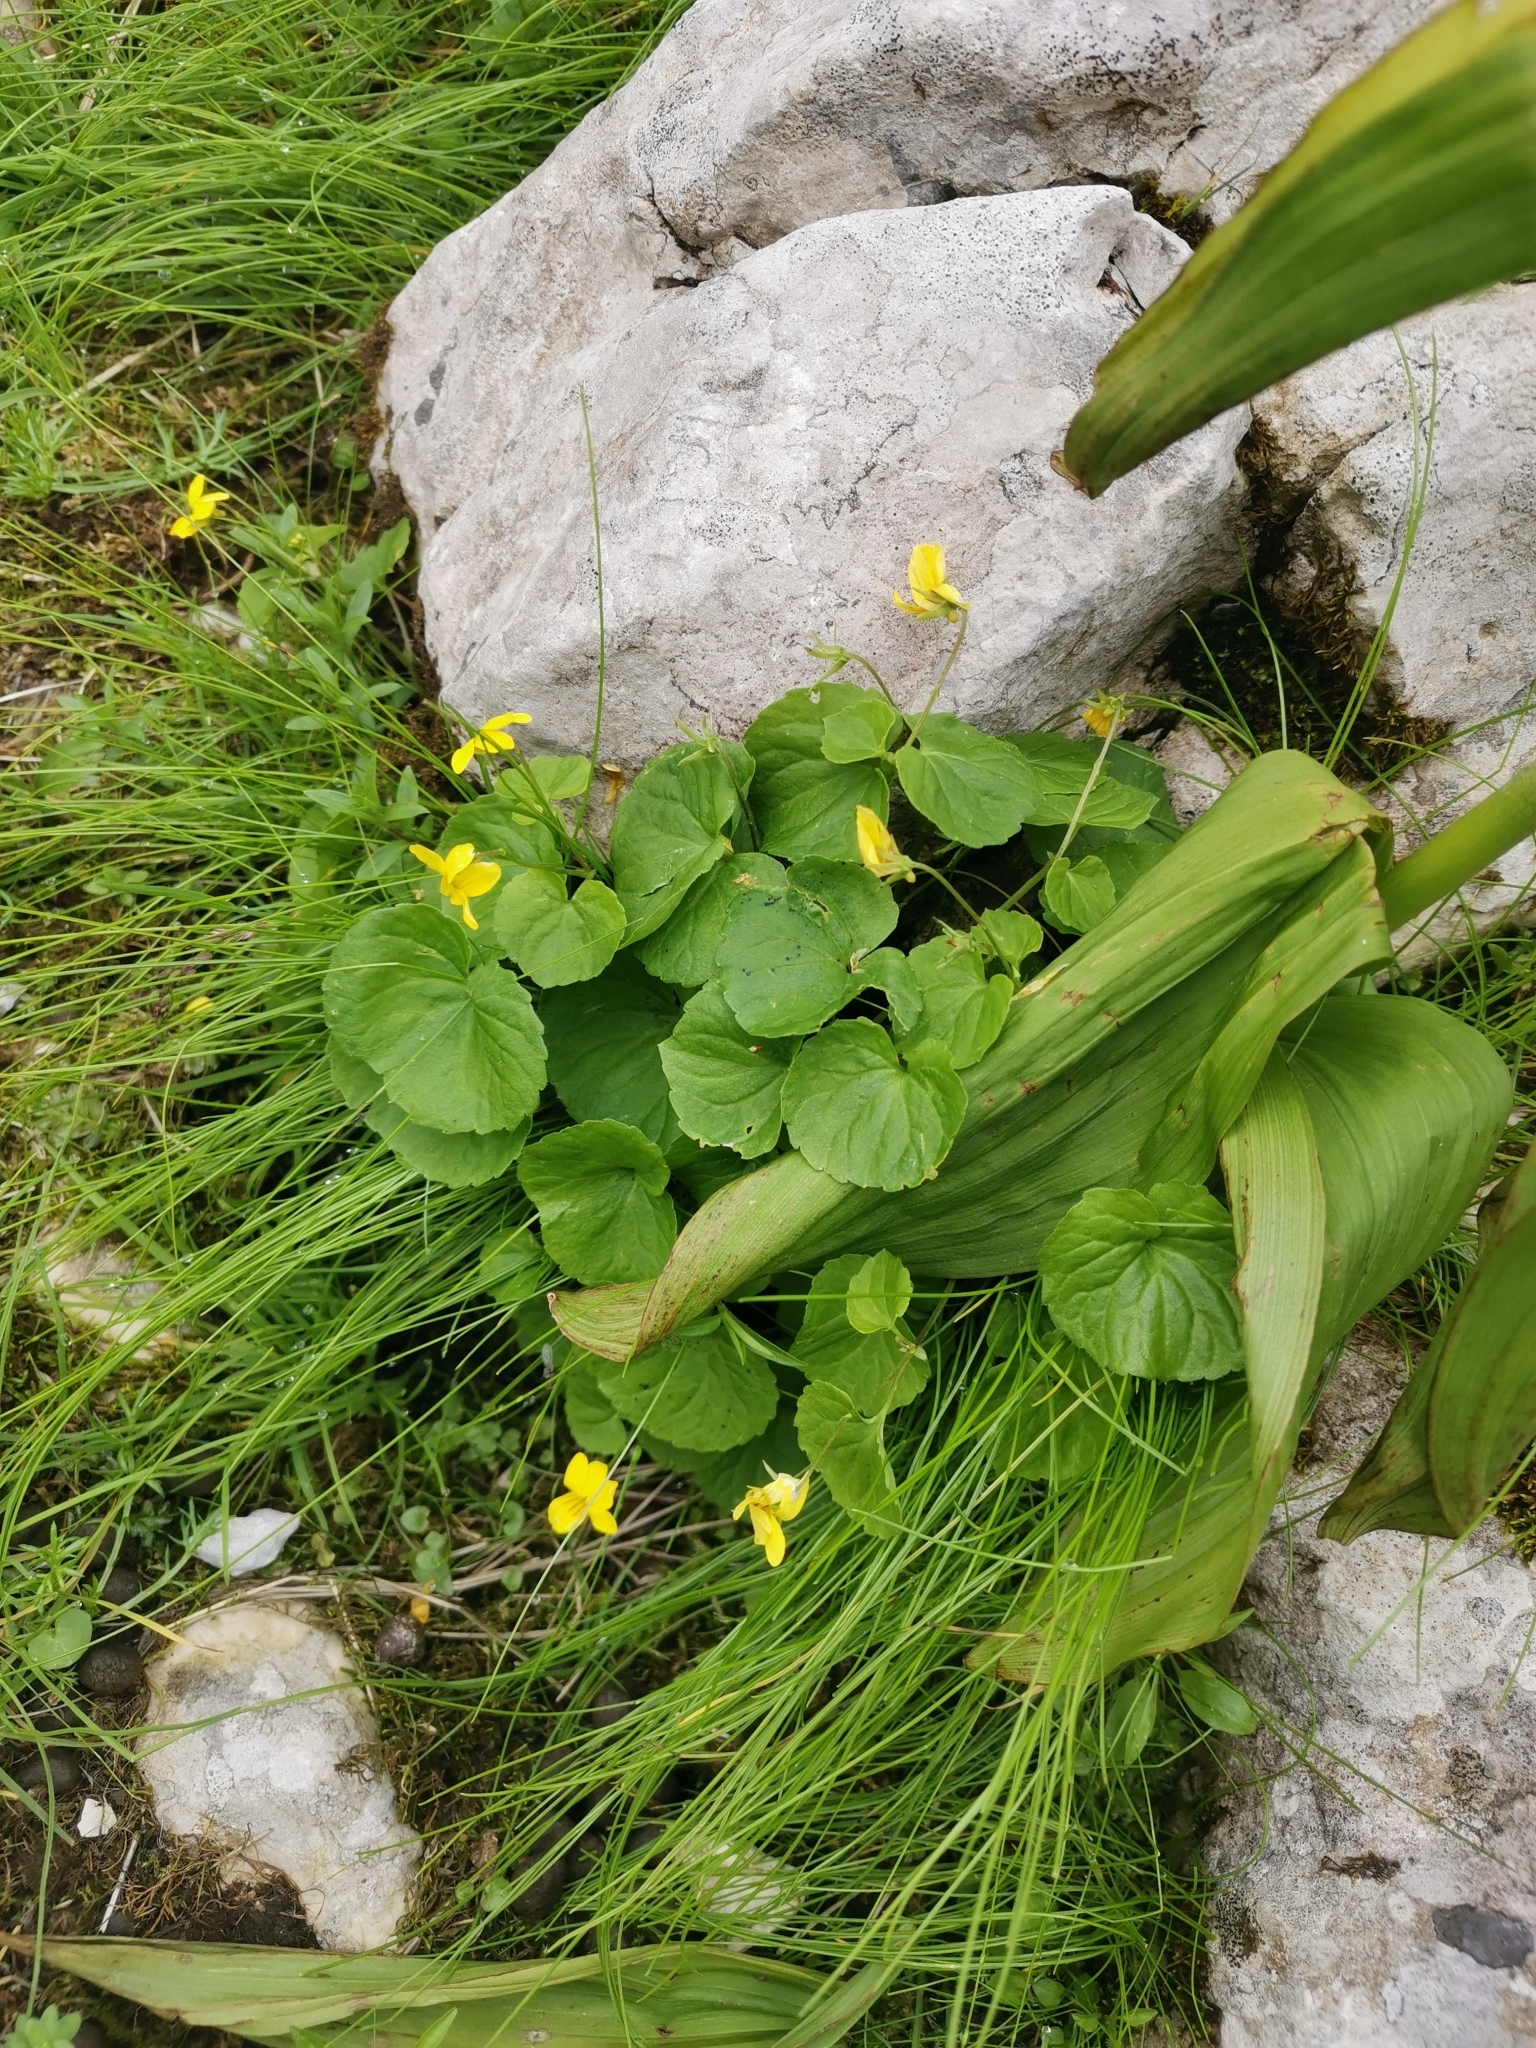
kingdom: Plantae
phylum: Tracheophyta
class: Magnoliopsida
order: Malpighiales
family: Violaceae
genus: Viola
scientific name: Viola biflora
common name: Alpine yellow violet
